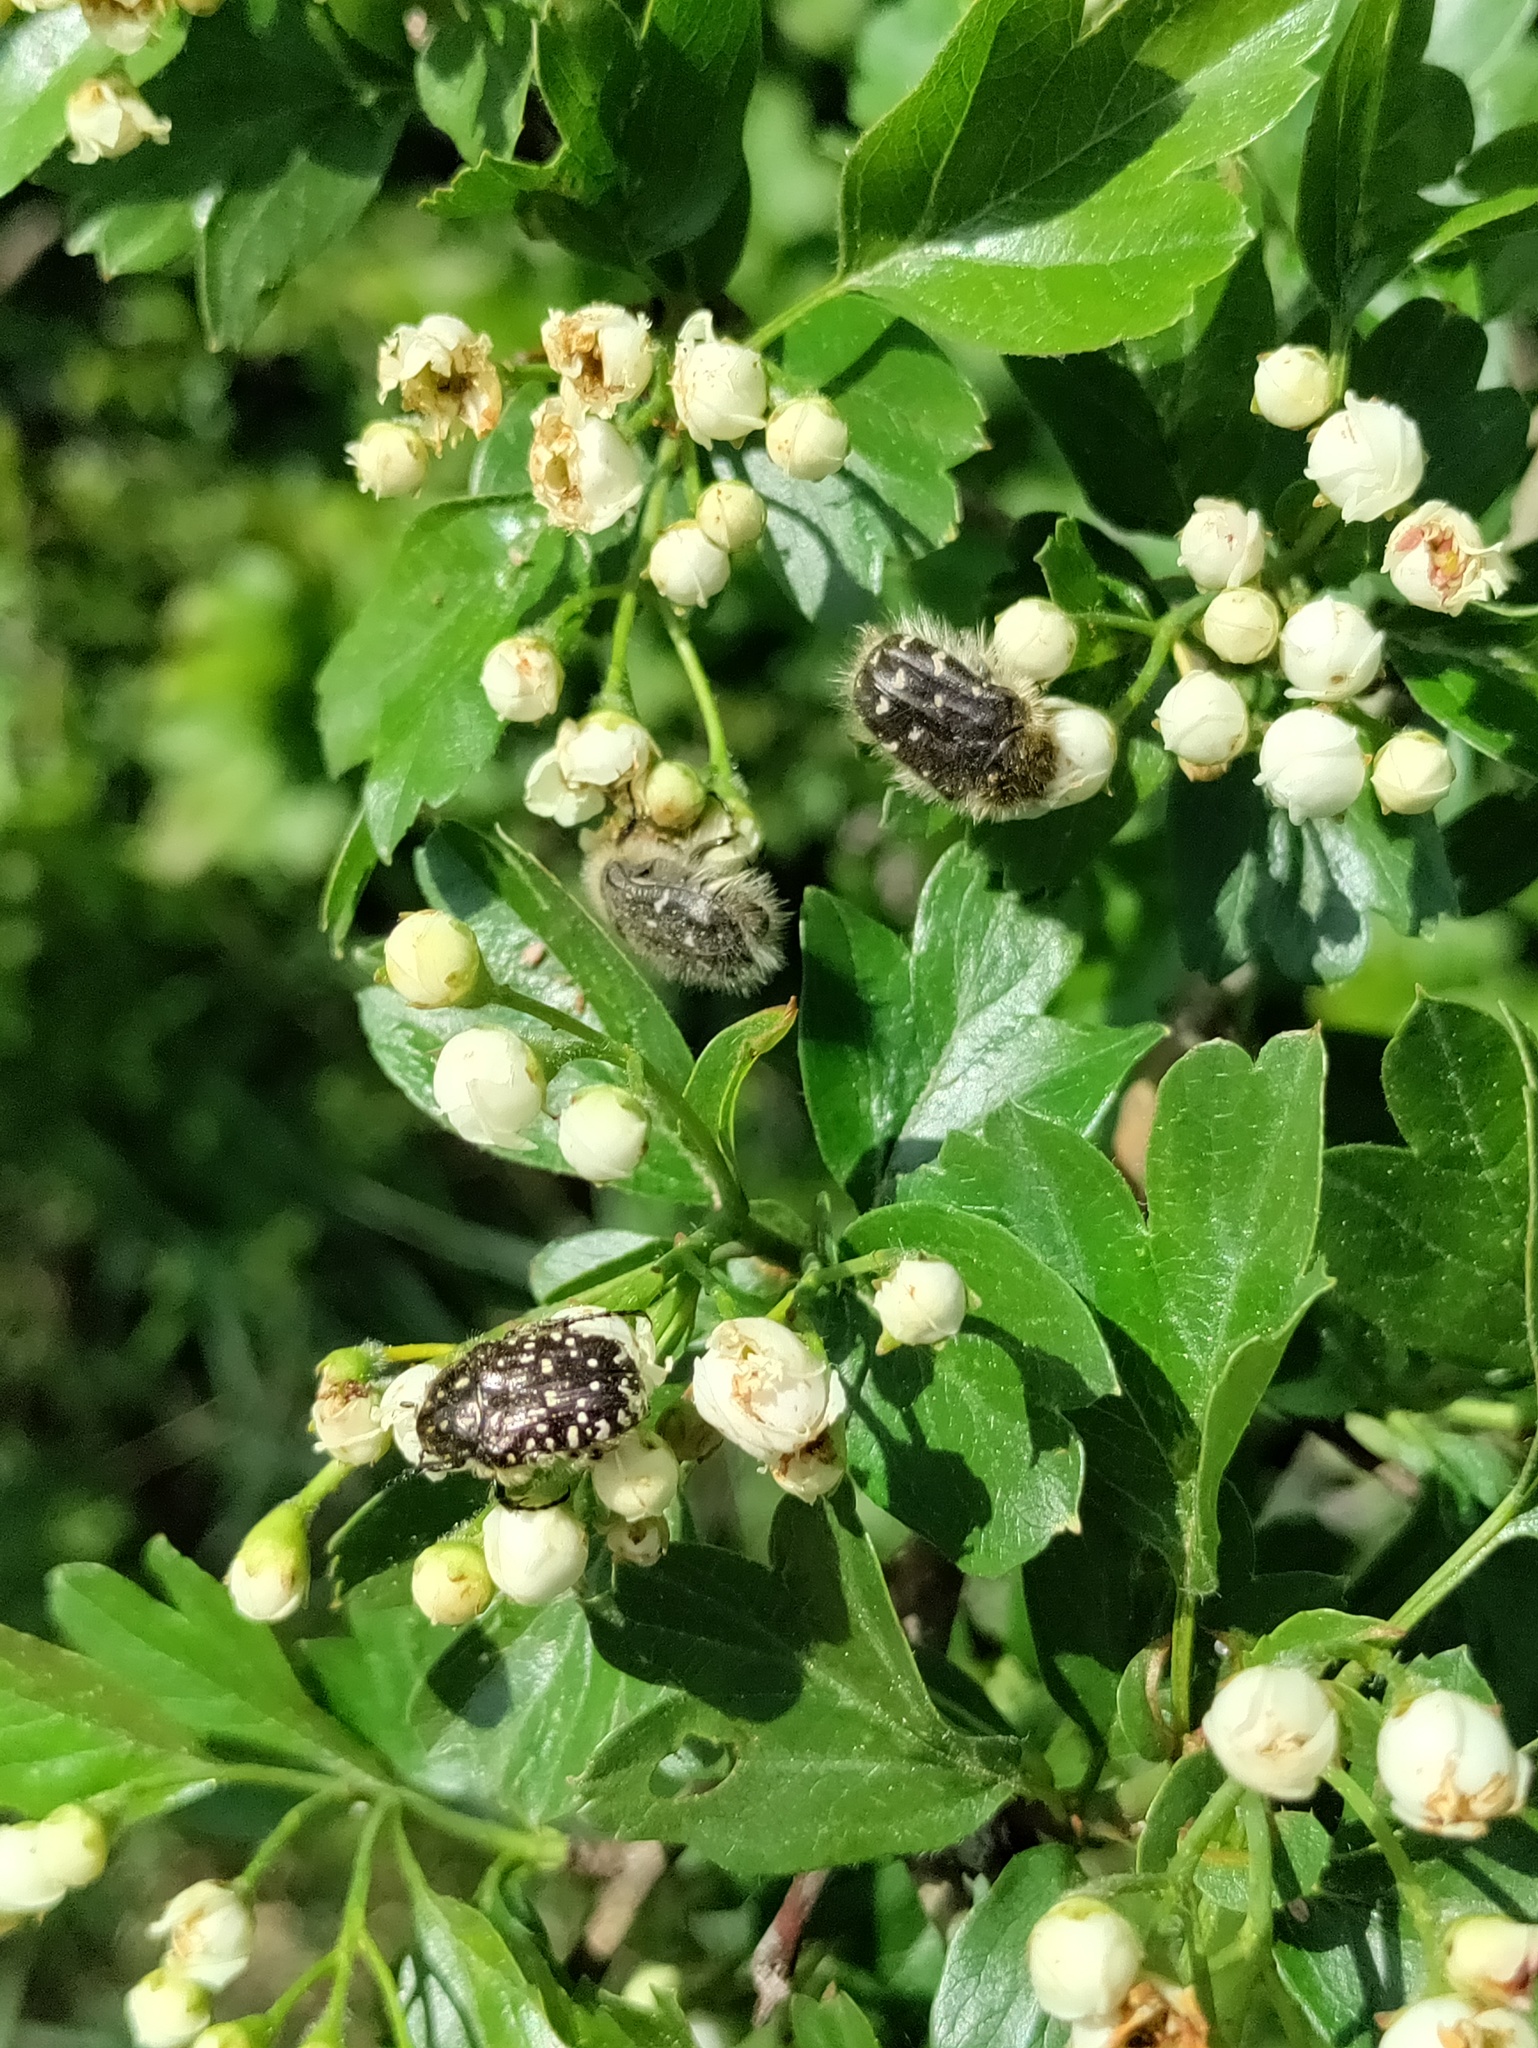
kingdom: Animalia
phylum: Arthropoda
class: Insecta
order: Coleoptera
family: Scarabaeidae
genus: Oxythyrea
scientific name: Oxythyrea funesta
